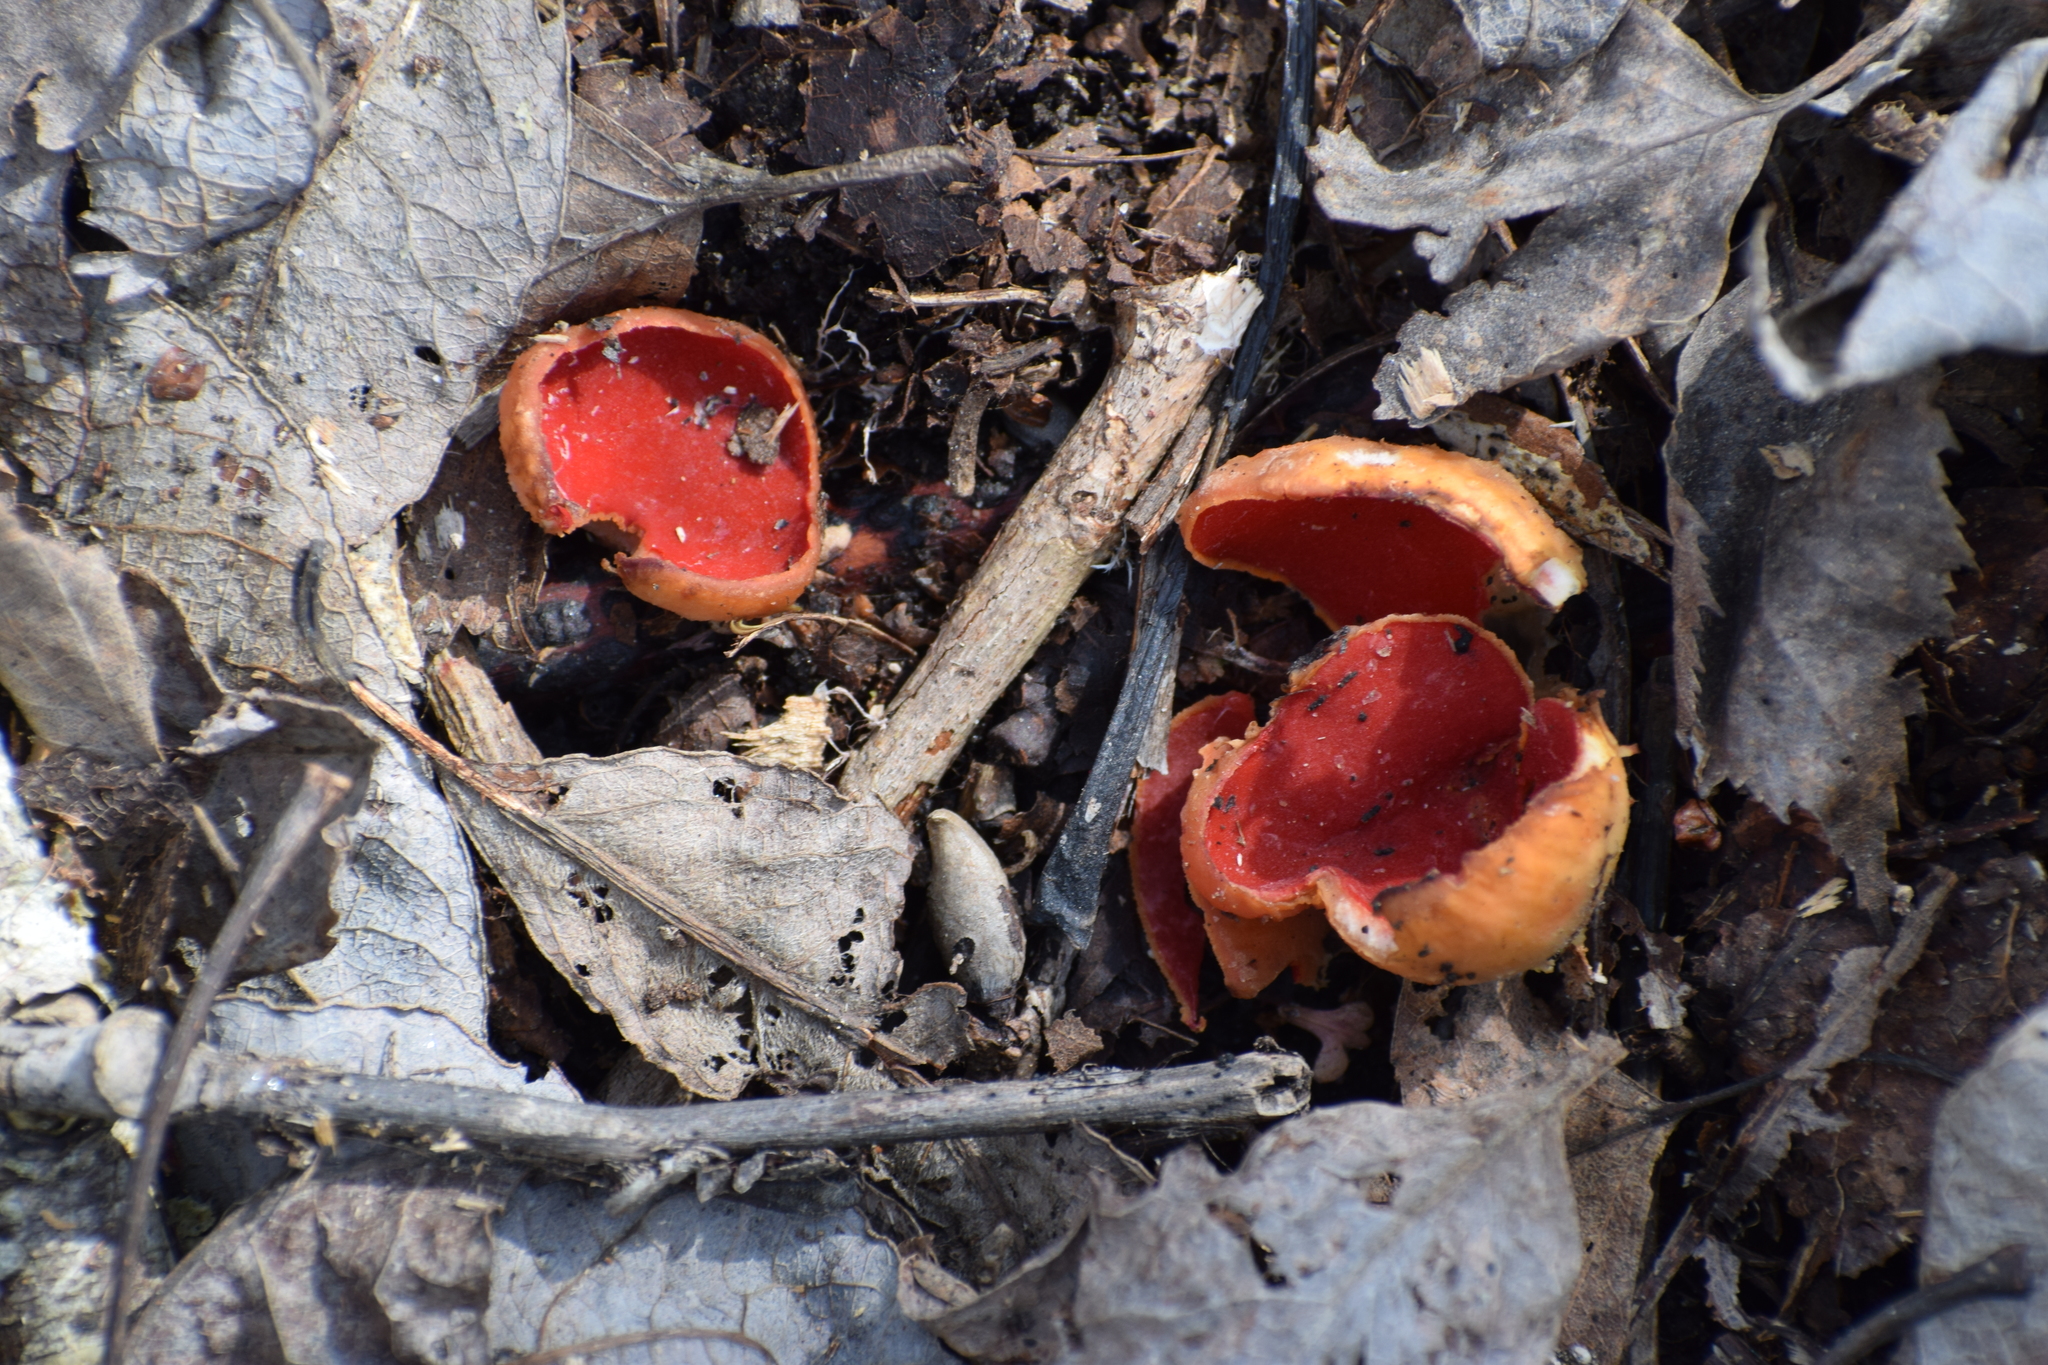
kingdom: Fungi
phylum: Ascomycota
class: Pezizomycetes
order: Pezizales
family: Sarcoscyphaceae
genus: Sarcoscypha
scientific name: Sarcoscypha austriaca
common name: Scarlet elfcup
